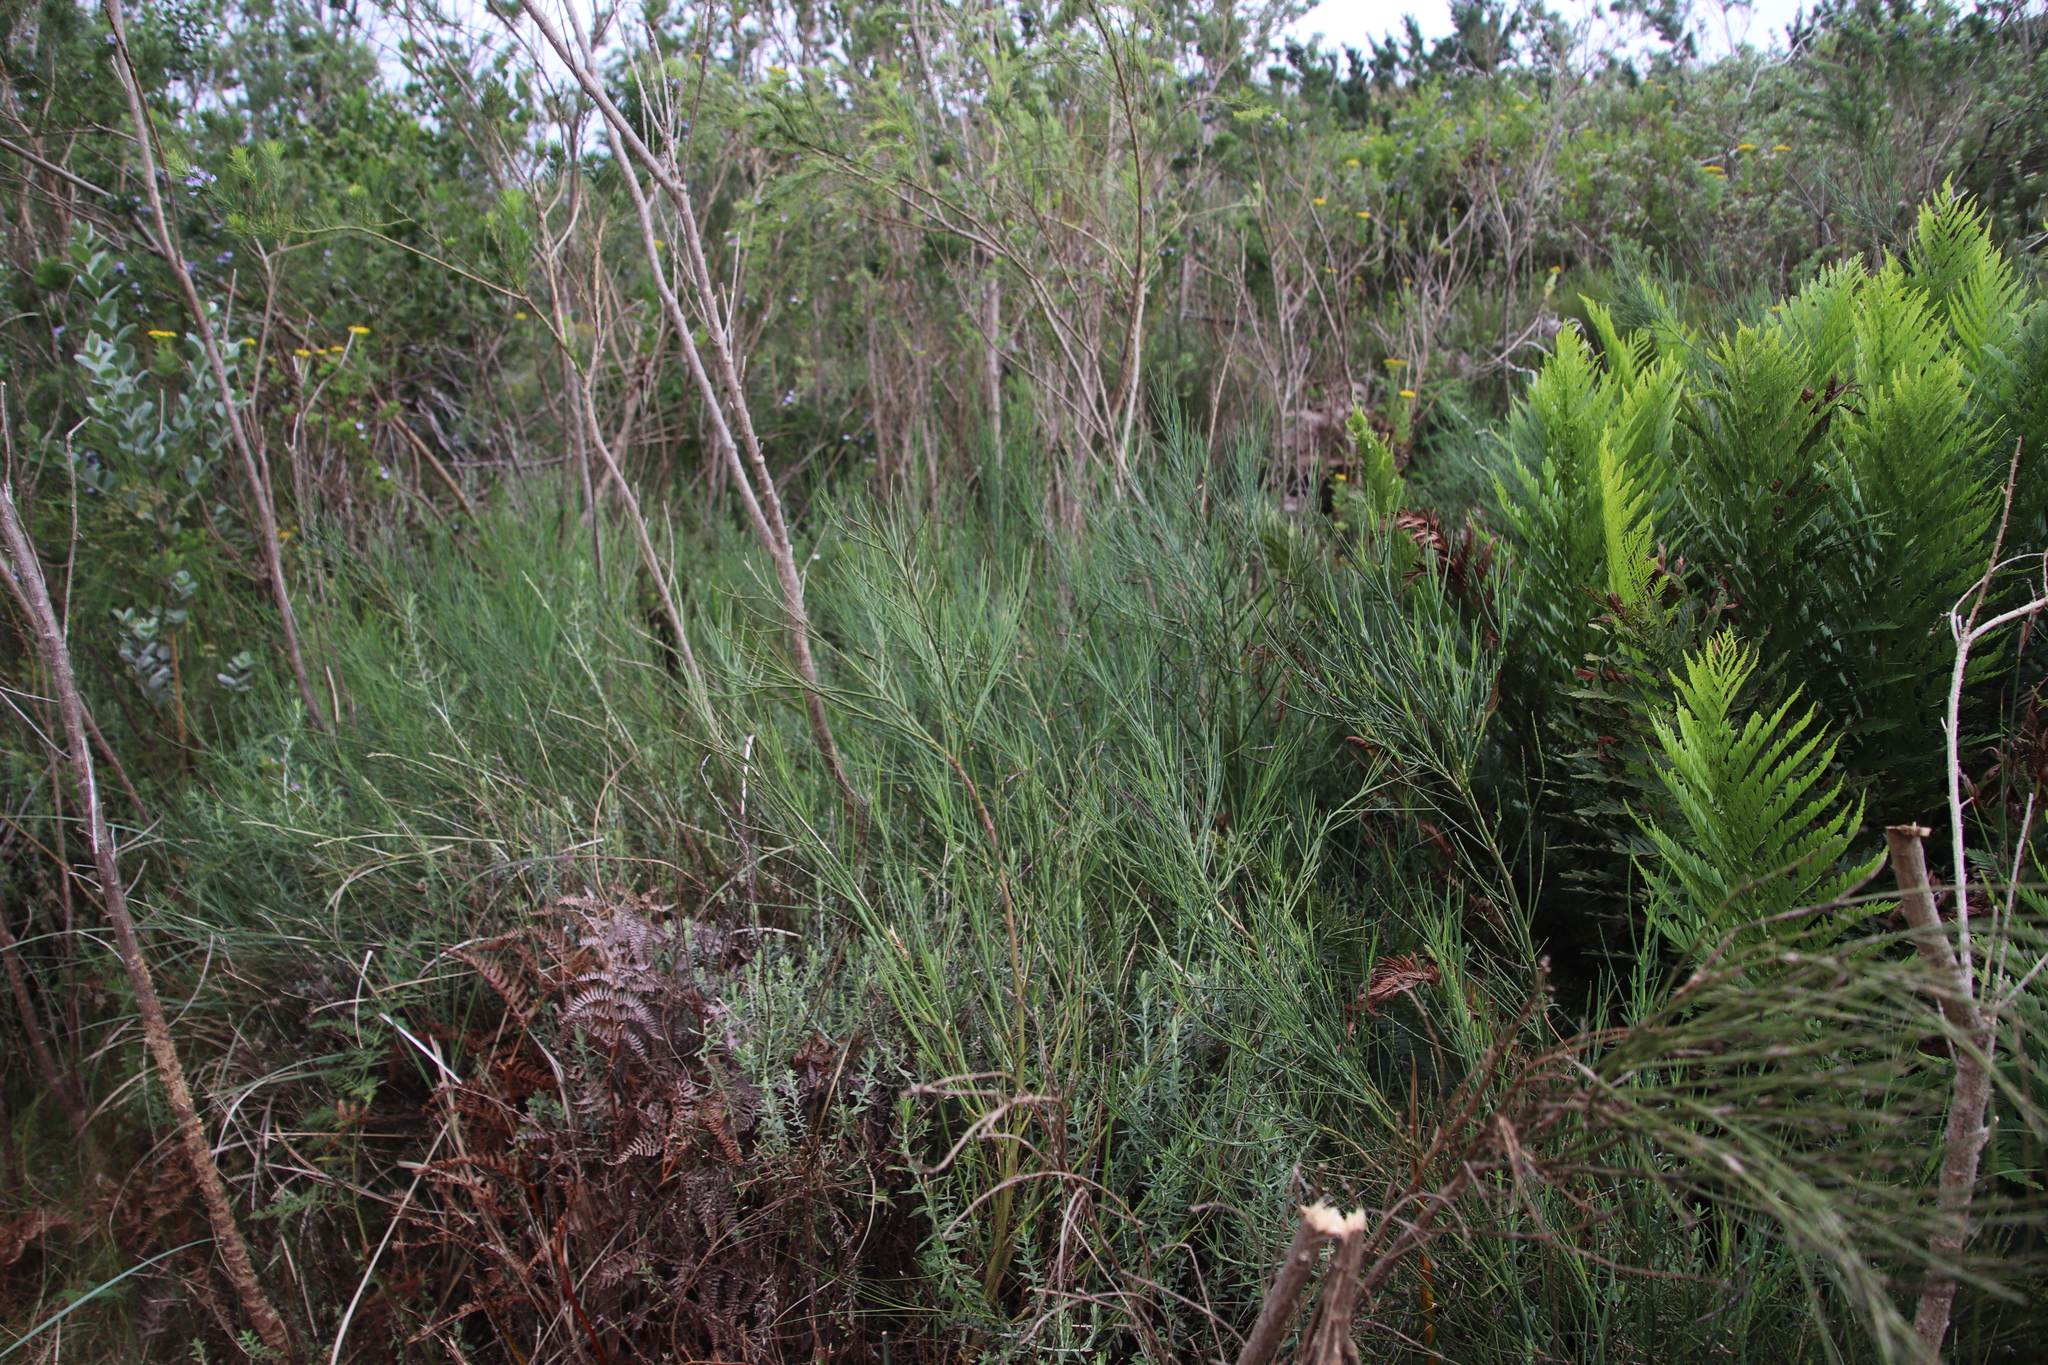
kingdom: Plantae
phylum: Tracheophyta
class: Magnoliopsida
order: Fabales
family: Fabaceae
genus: Psoralea
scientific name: Psoralea aphylla
